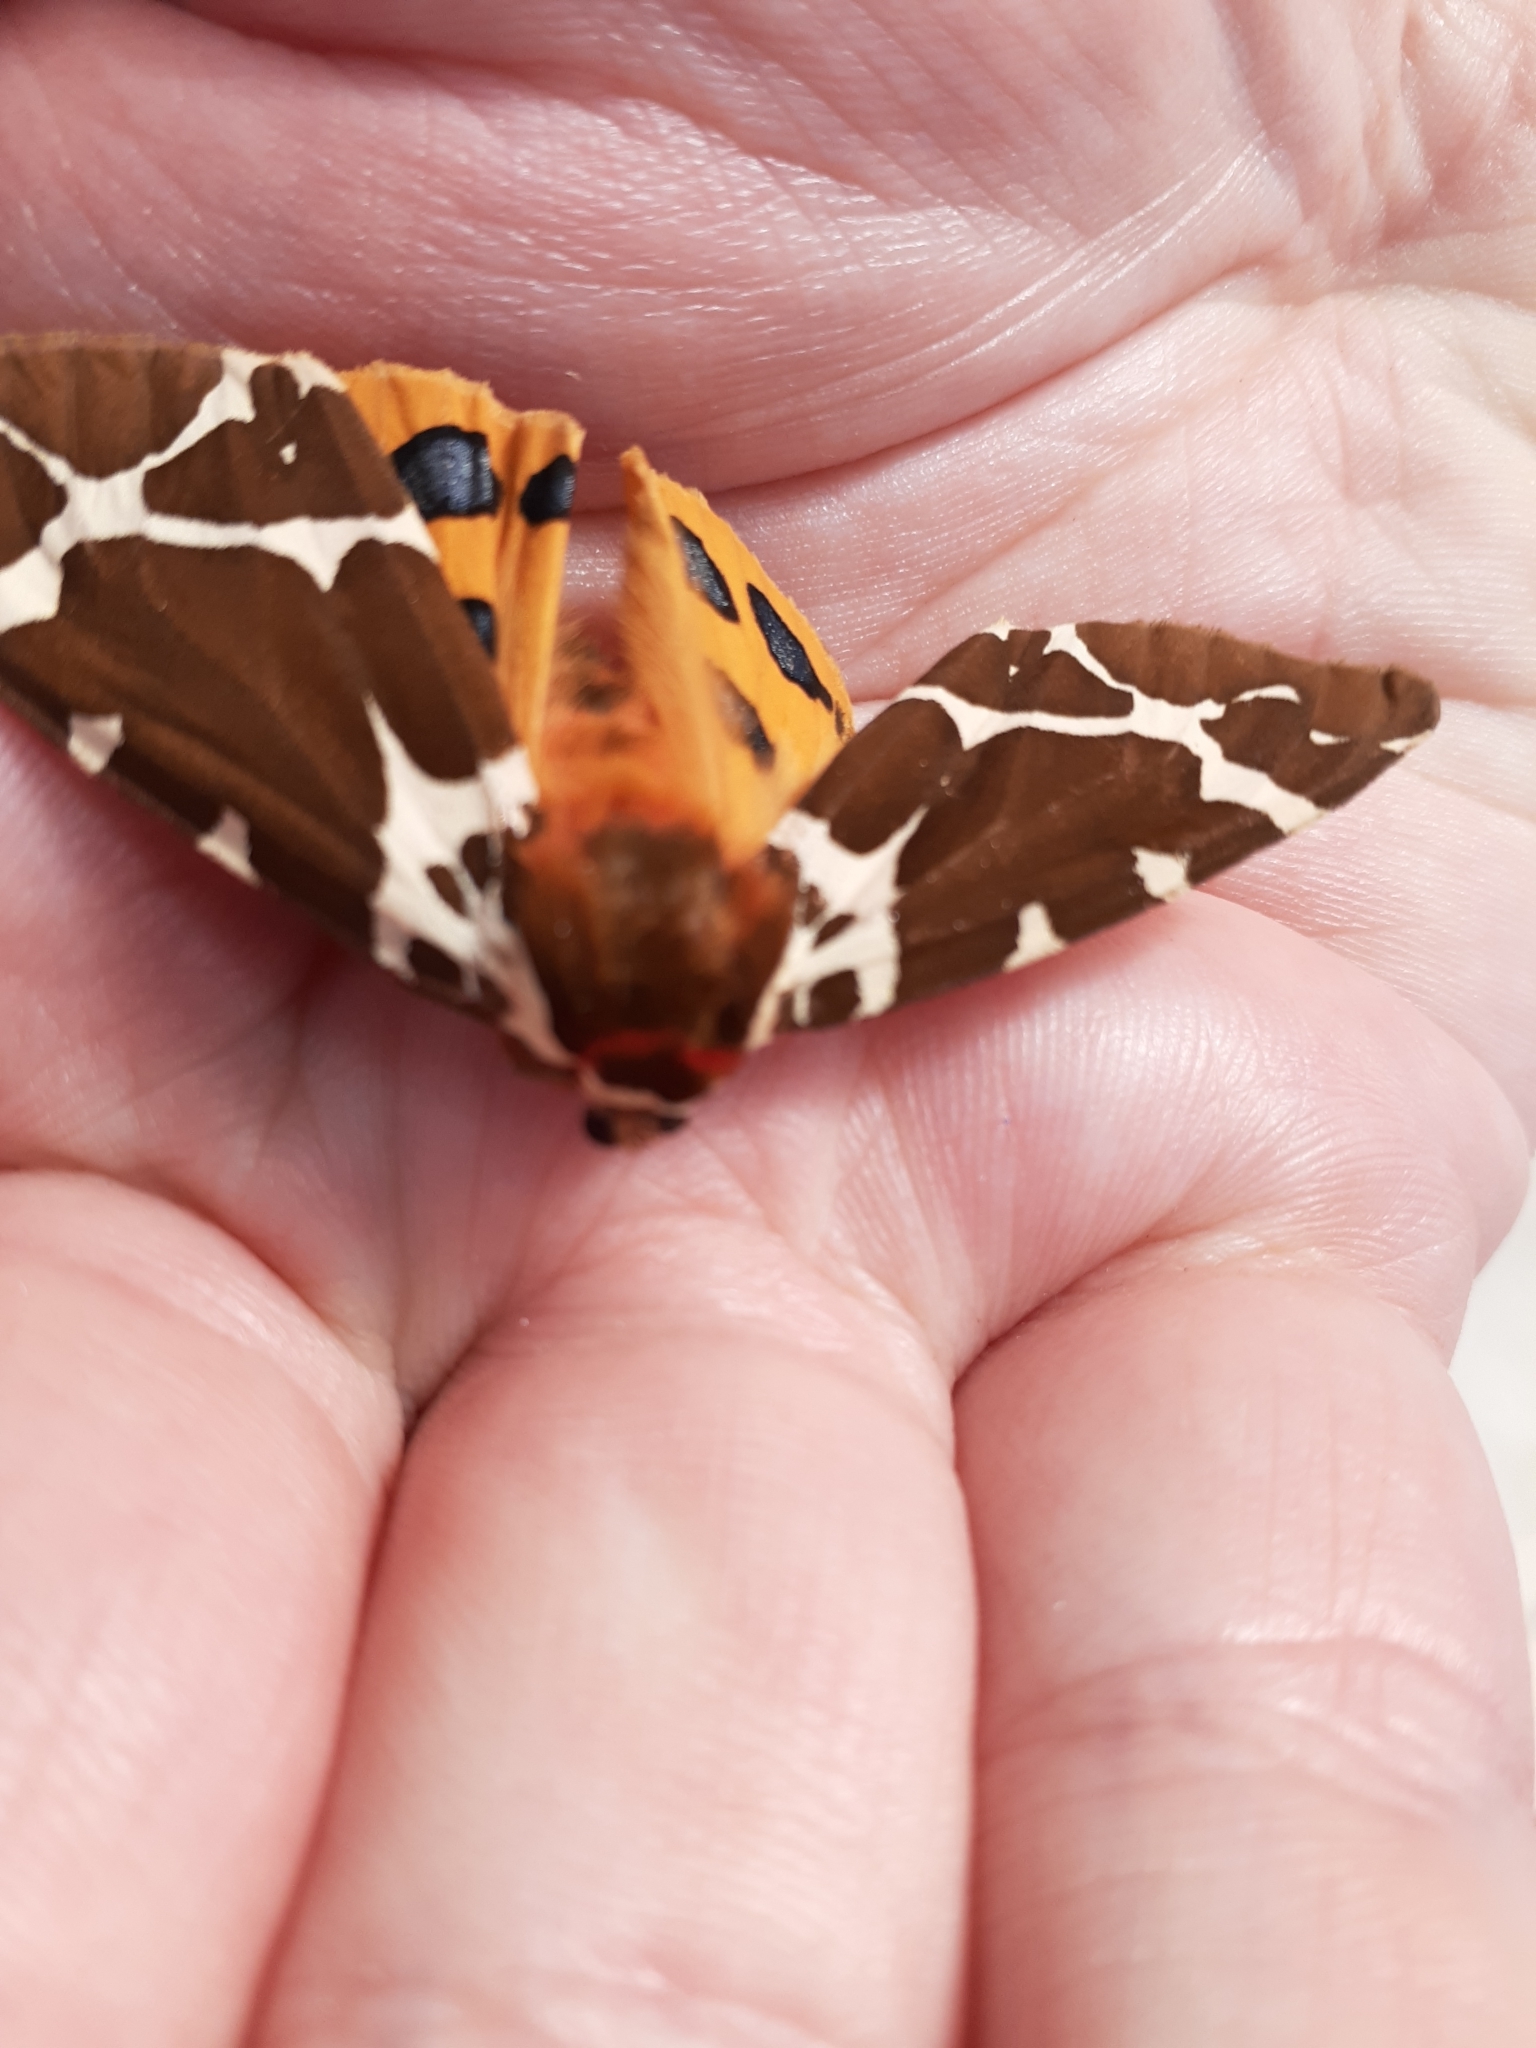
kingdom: Animalia
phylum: Arthropoda
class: Insecta
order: Lepidoptera
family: Erebidae
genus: Arctia
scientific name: Arctia caja
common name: Garden tiger
